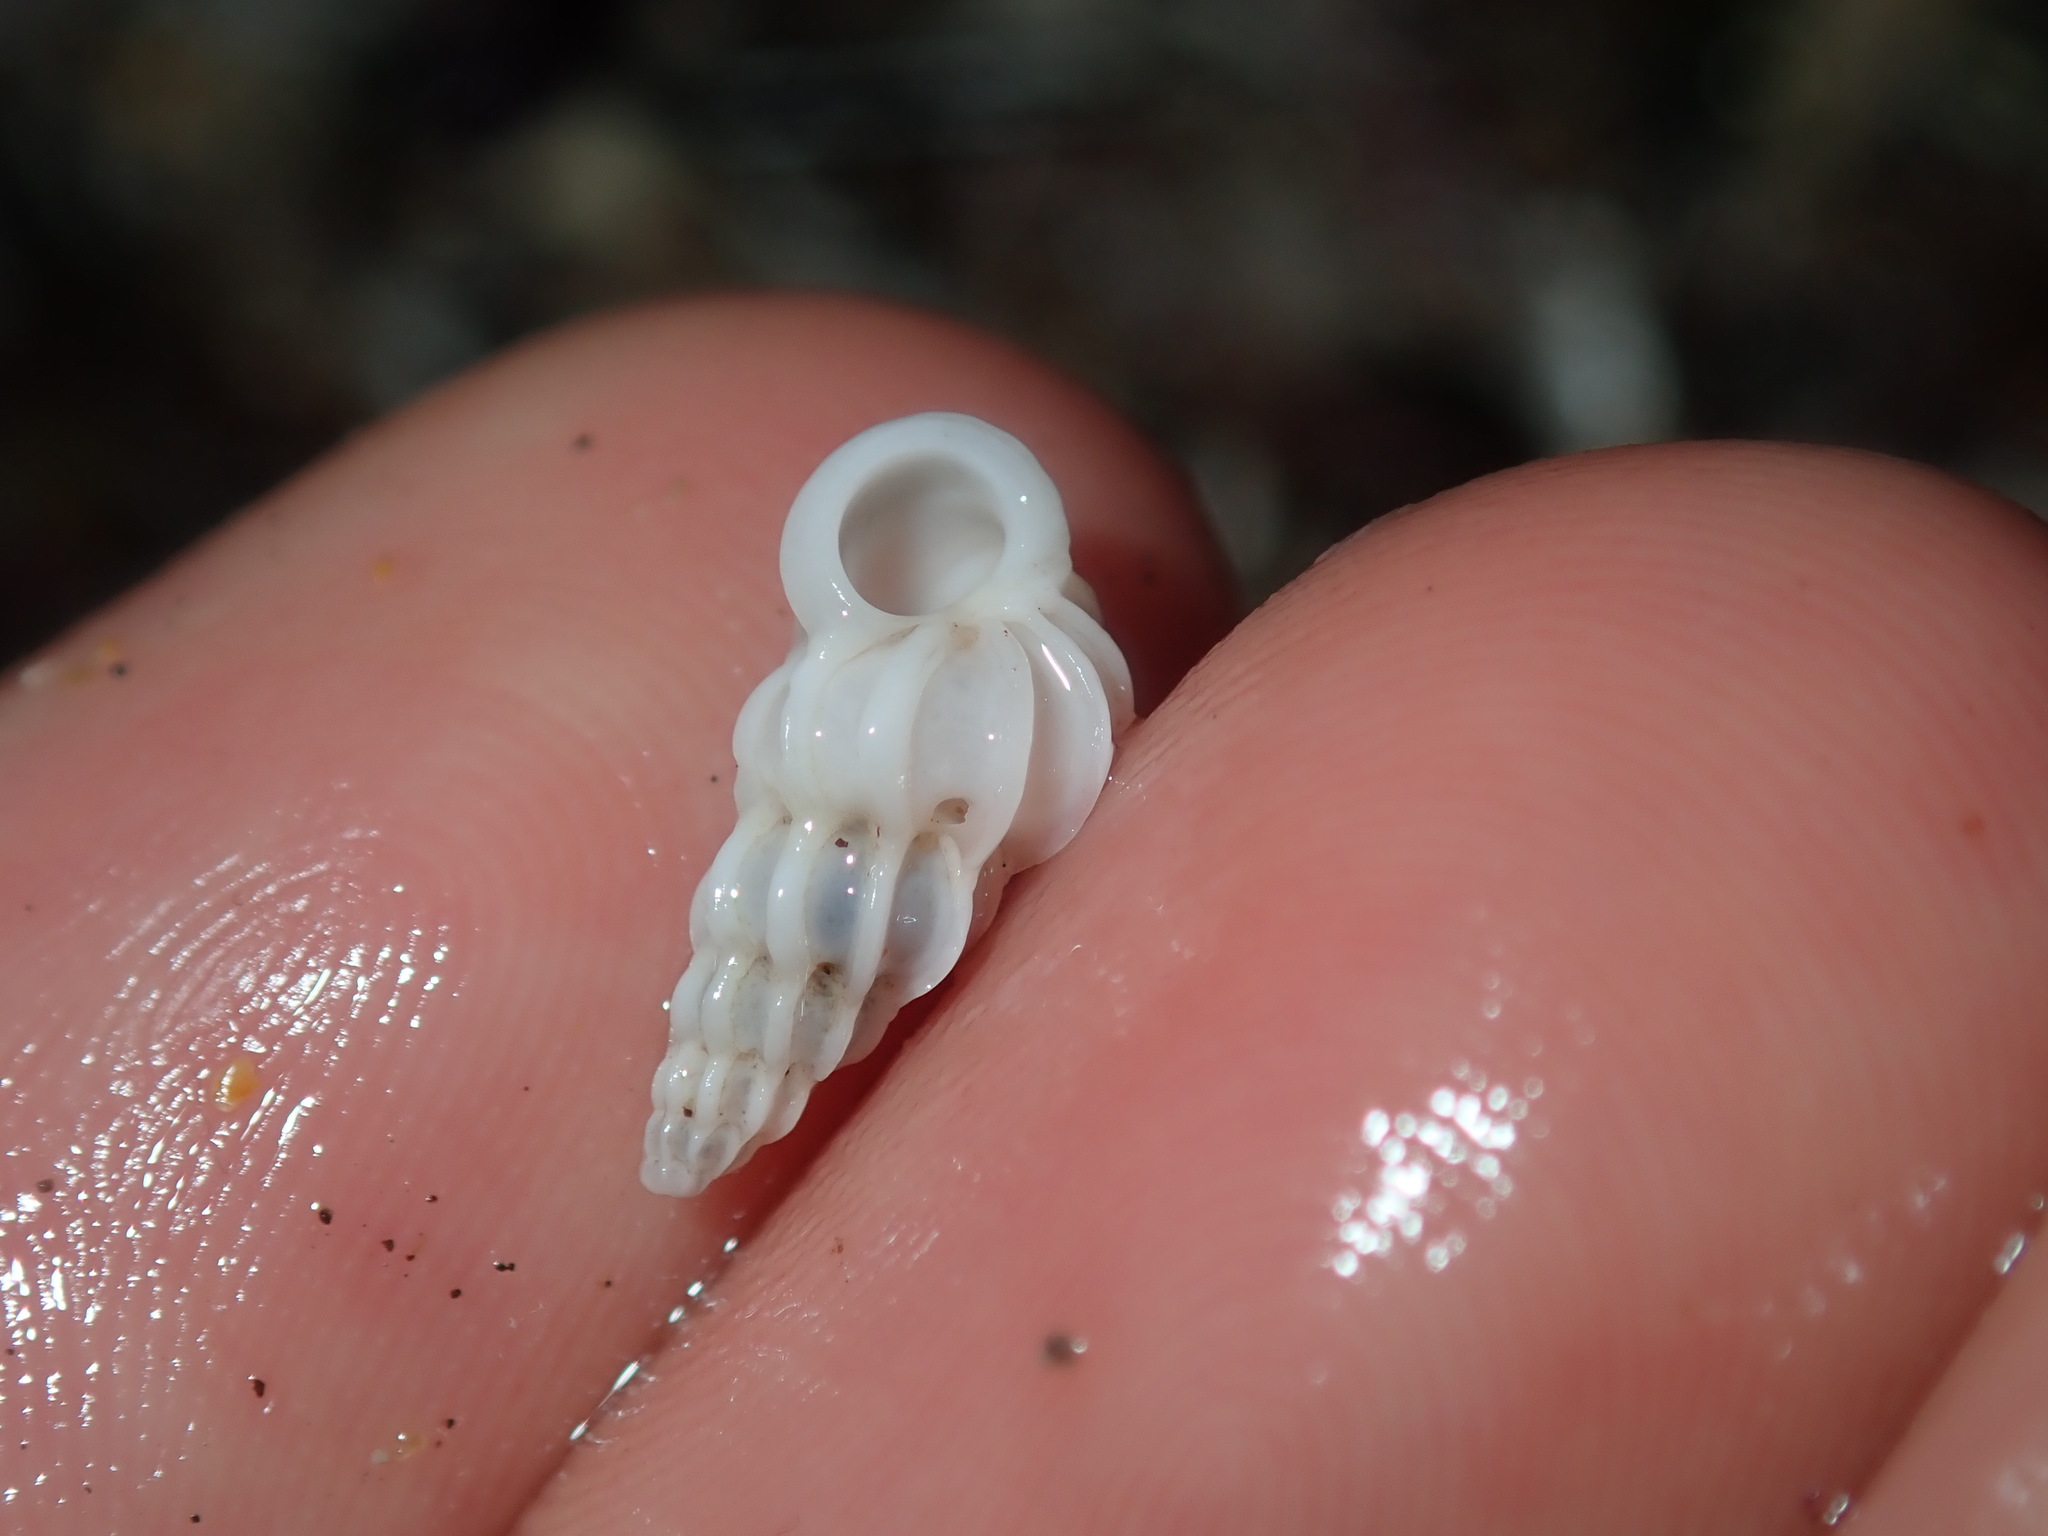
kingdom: Animalia
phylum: Mollusca
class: Gastropoda
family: Epitoniidae
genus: Epitonium
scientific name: Epitonium minorum
